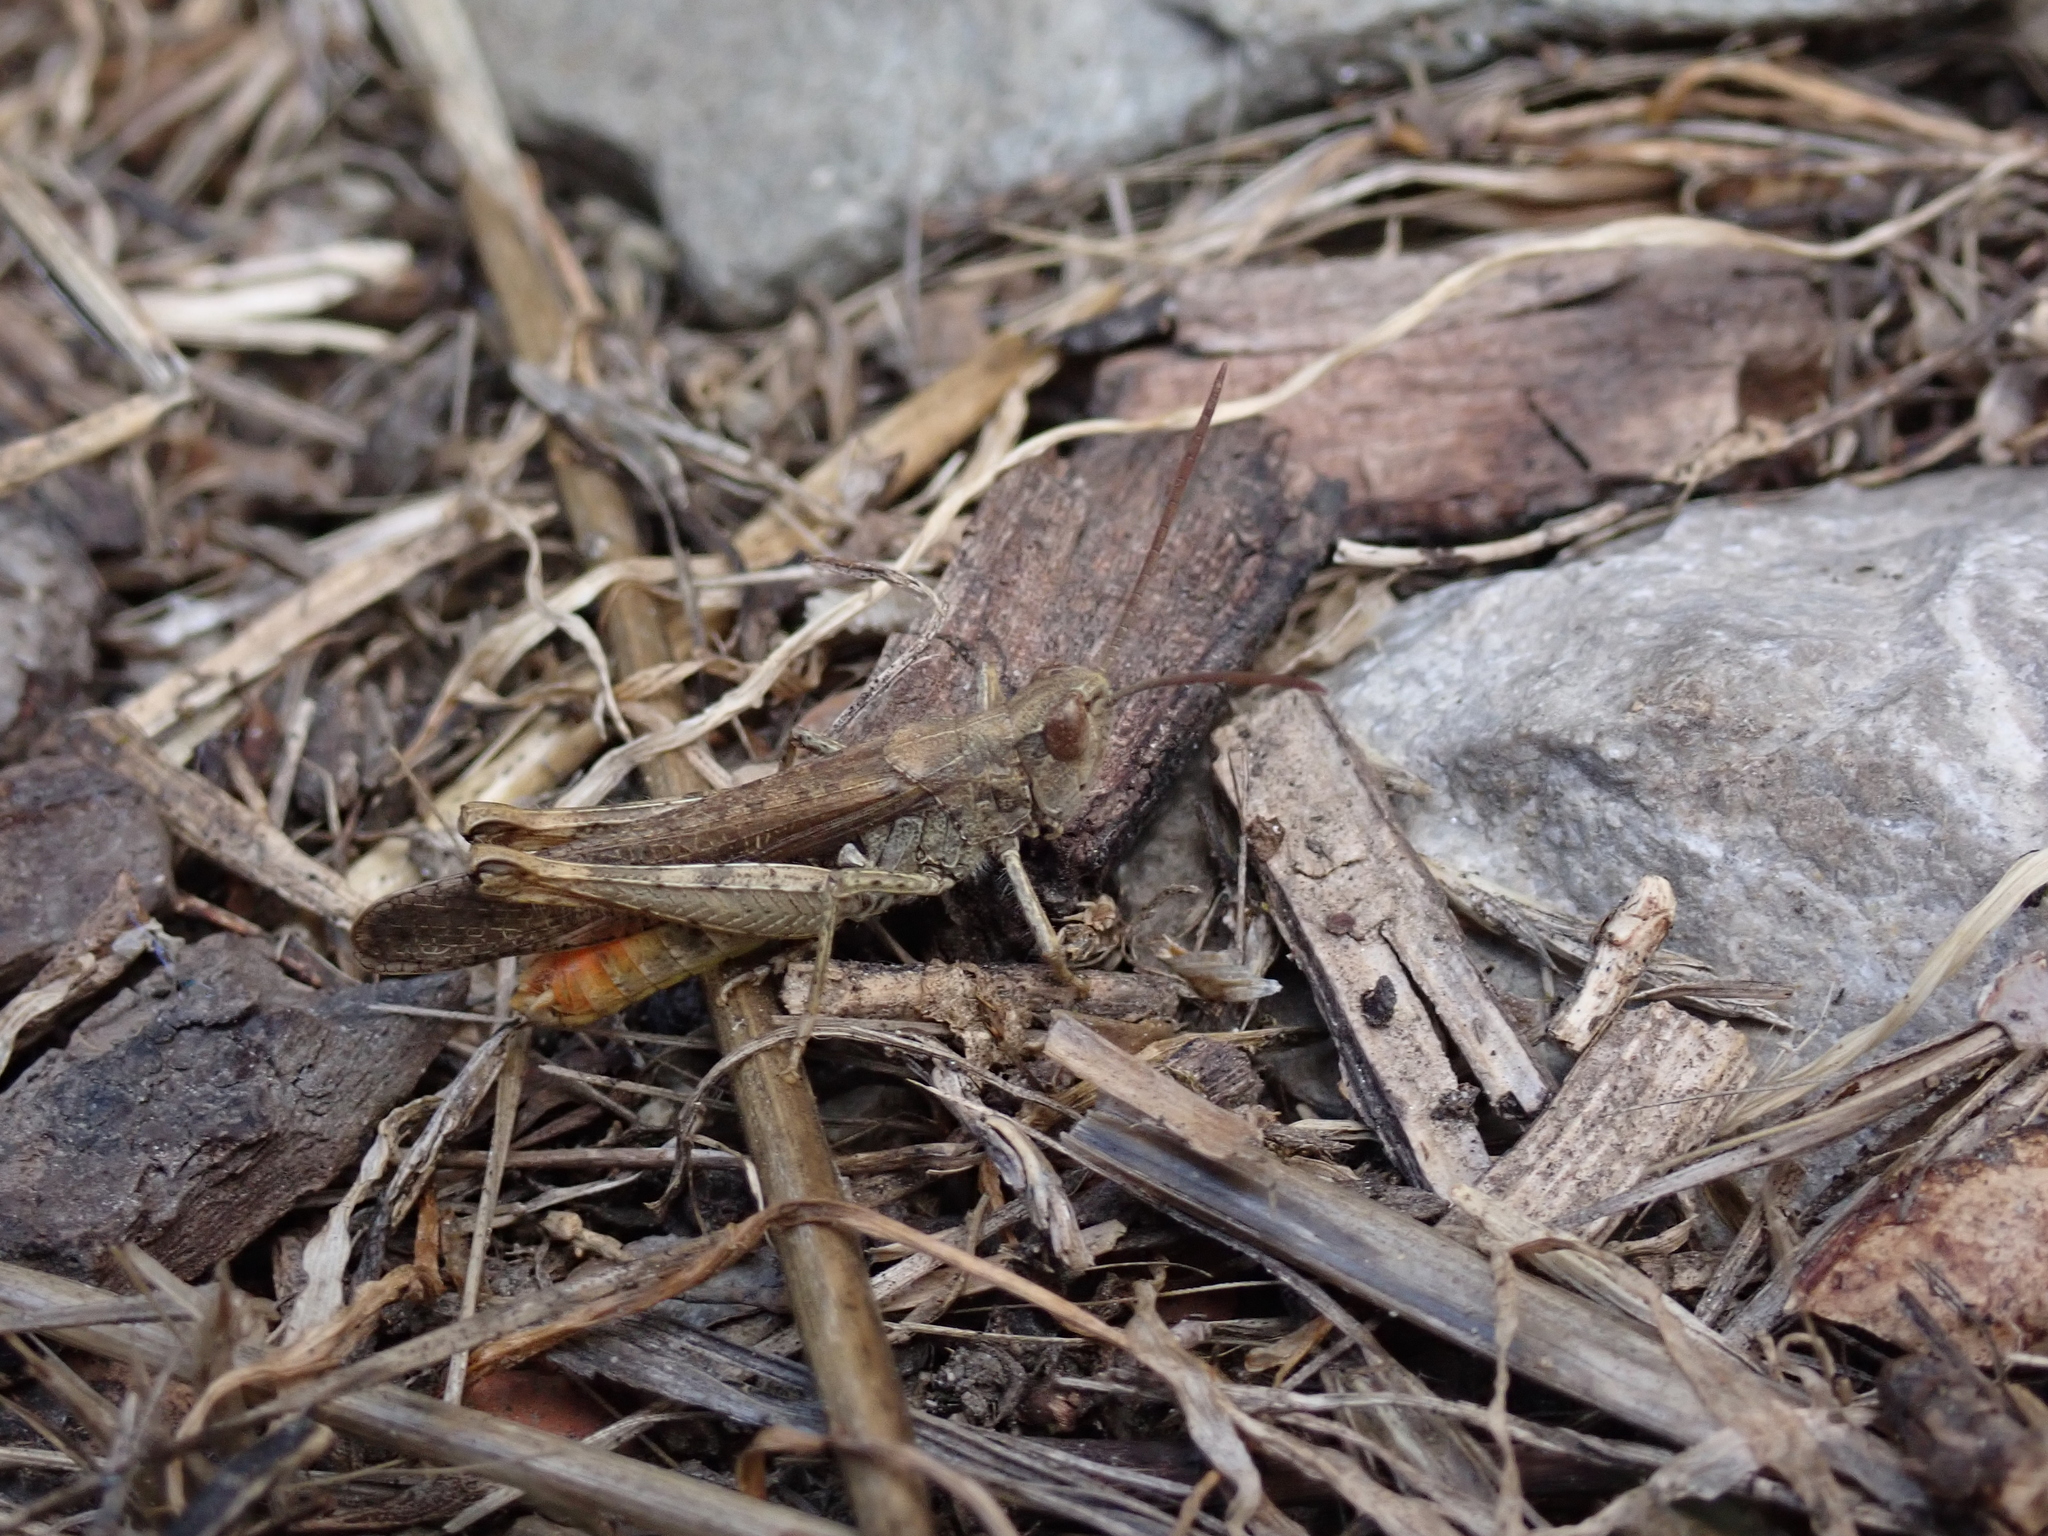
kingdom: Animalia
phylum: Arthropoda
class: Insecta
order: Orthoptera
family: Acrididae
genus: Chorthippus
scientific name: Chorthippus brunneus
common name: Field grasshopper
